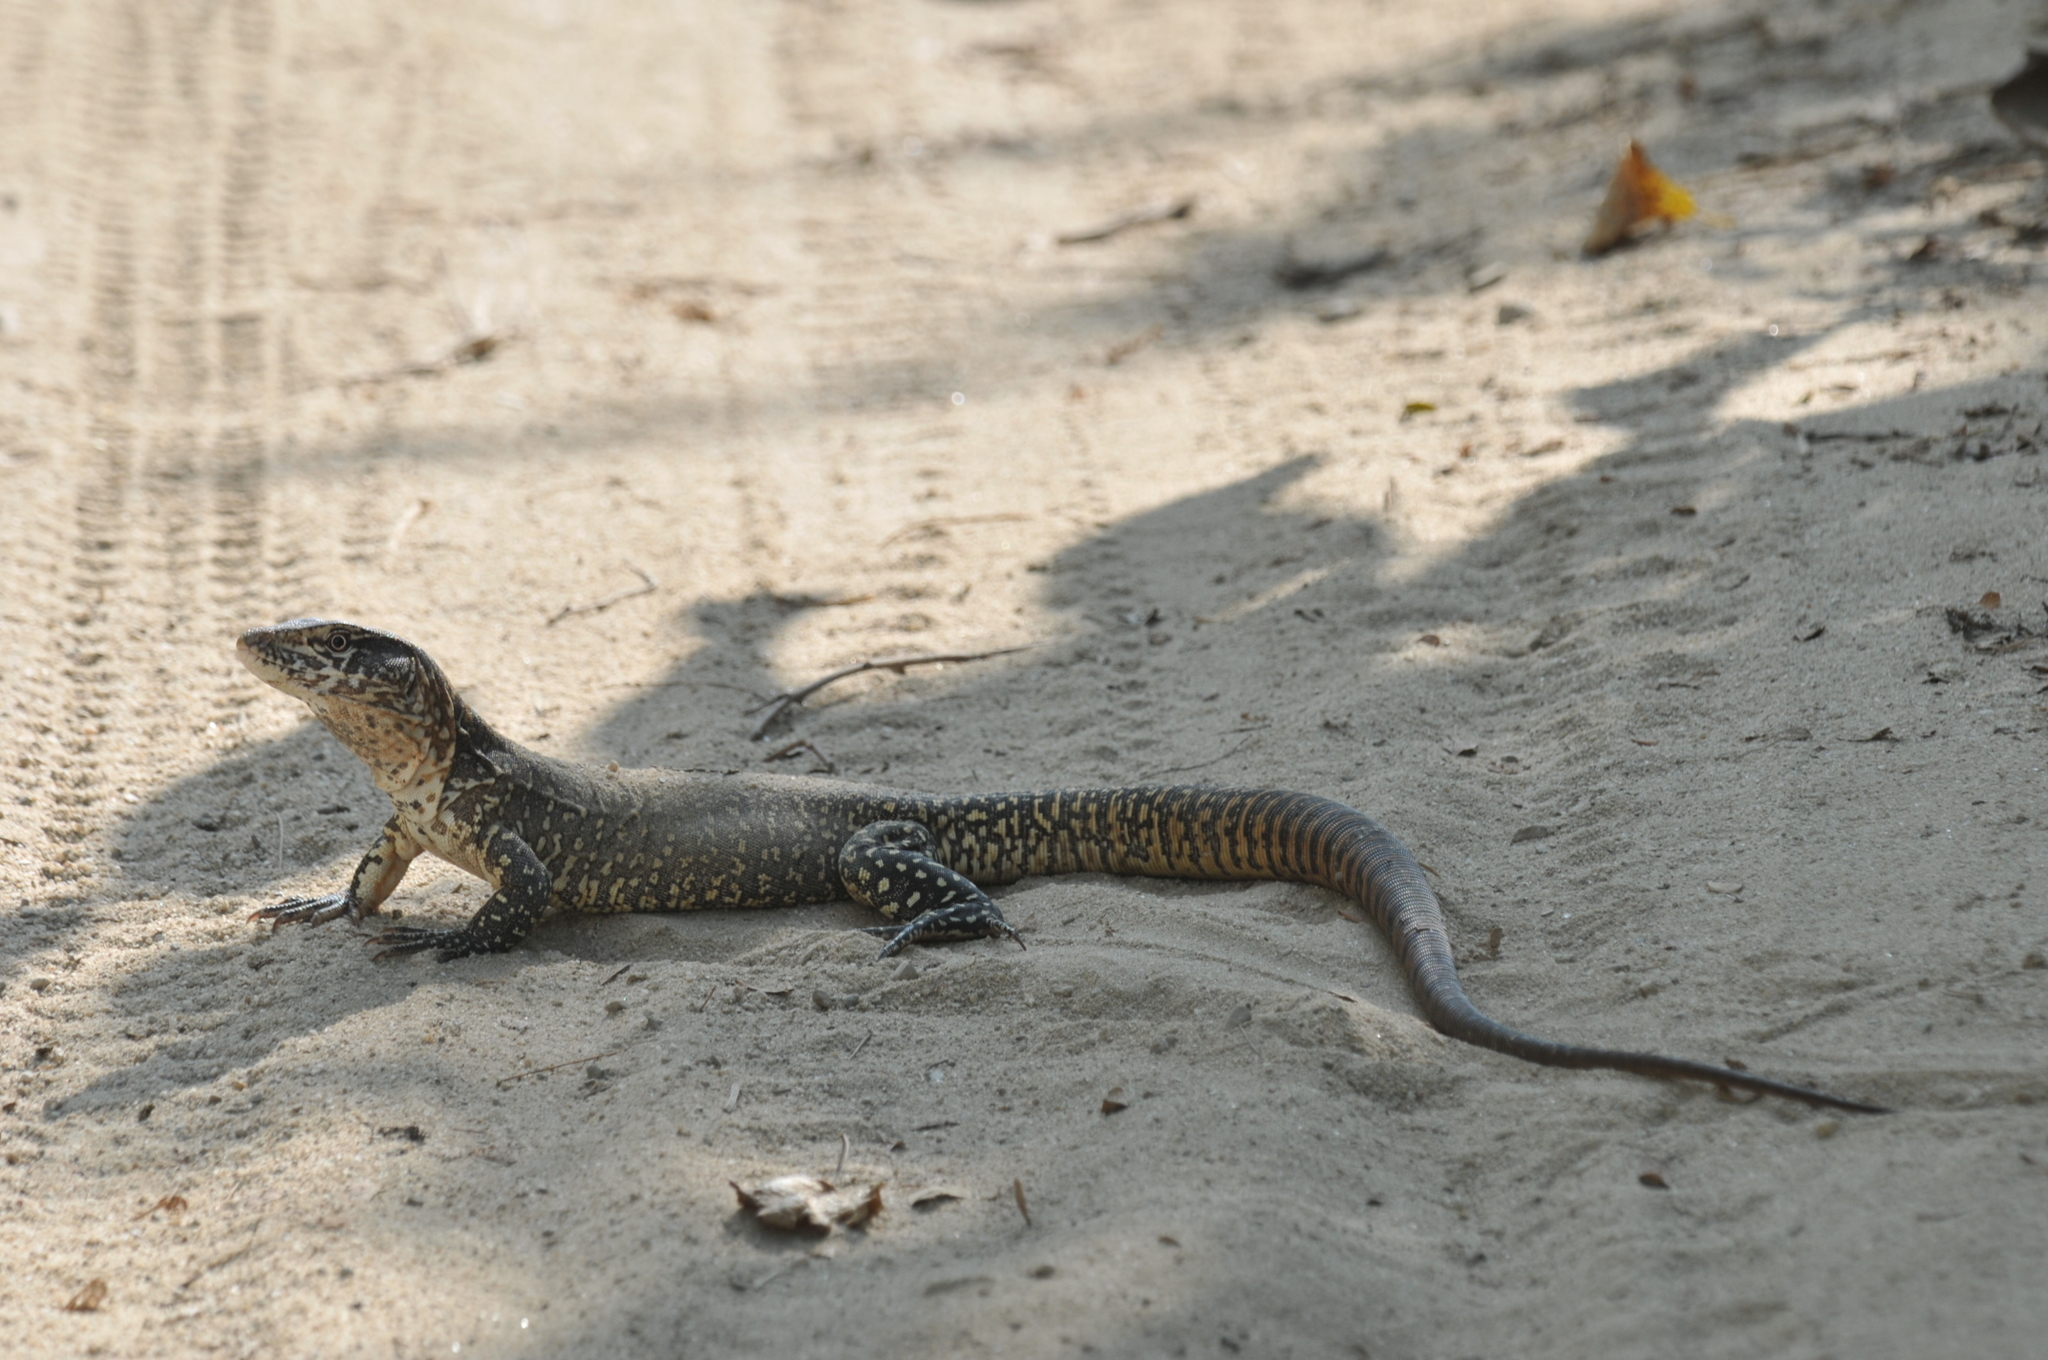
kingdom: Animalia
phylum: Chordata
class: Squamata
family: Teiidae
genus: Callopistes
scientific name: Callopistes flavipunctatus
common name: False monitor
